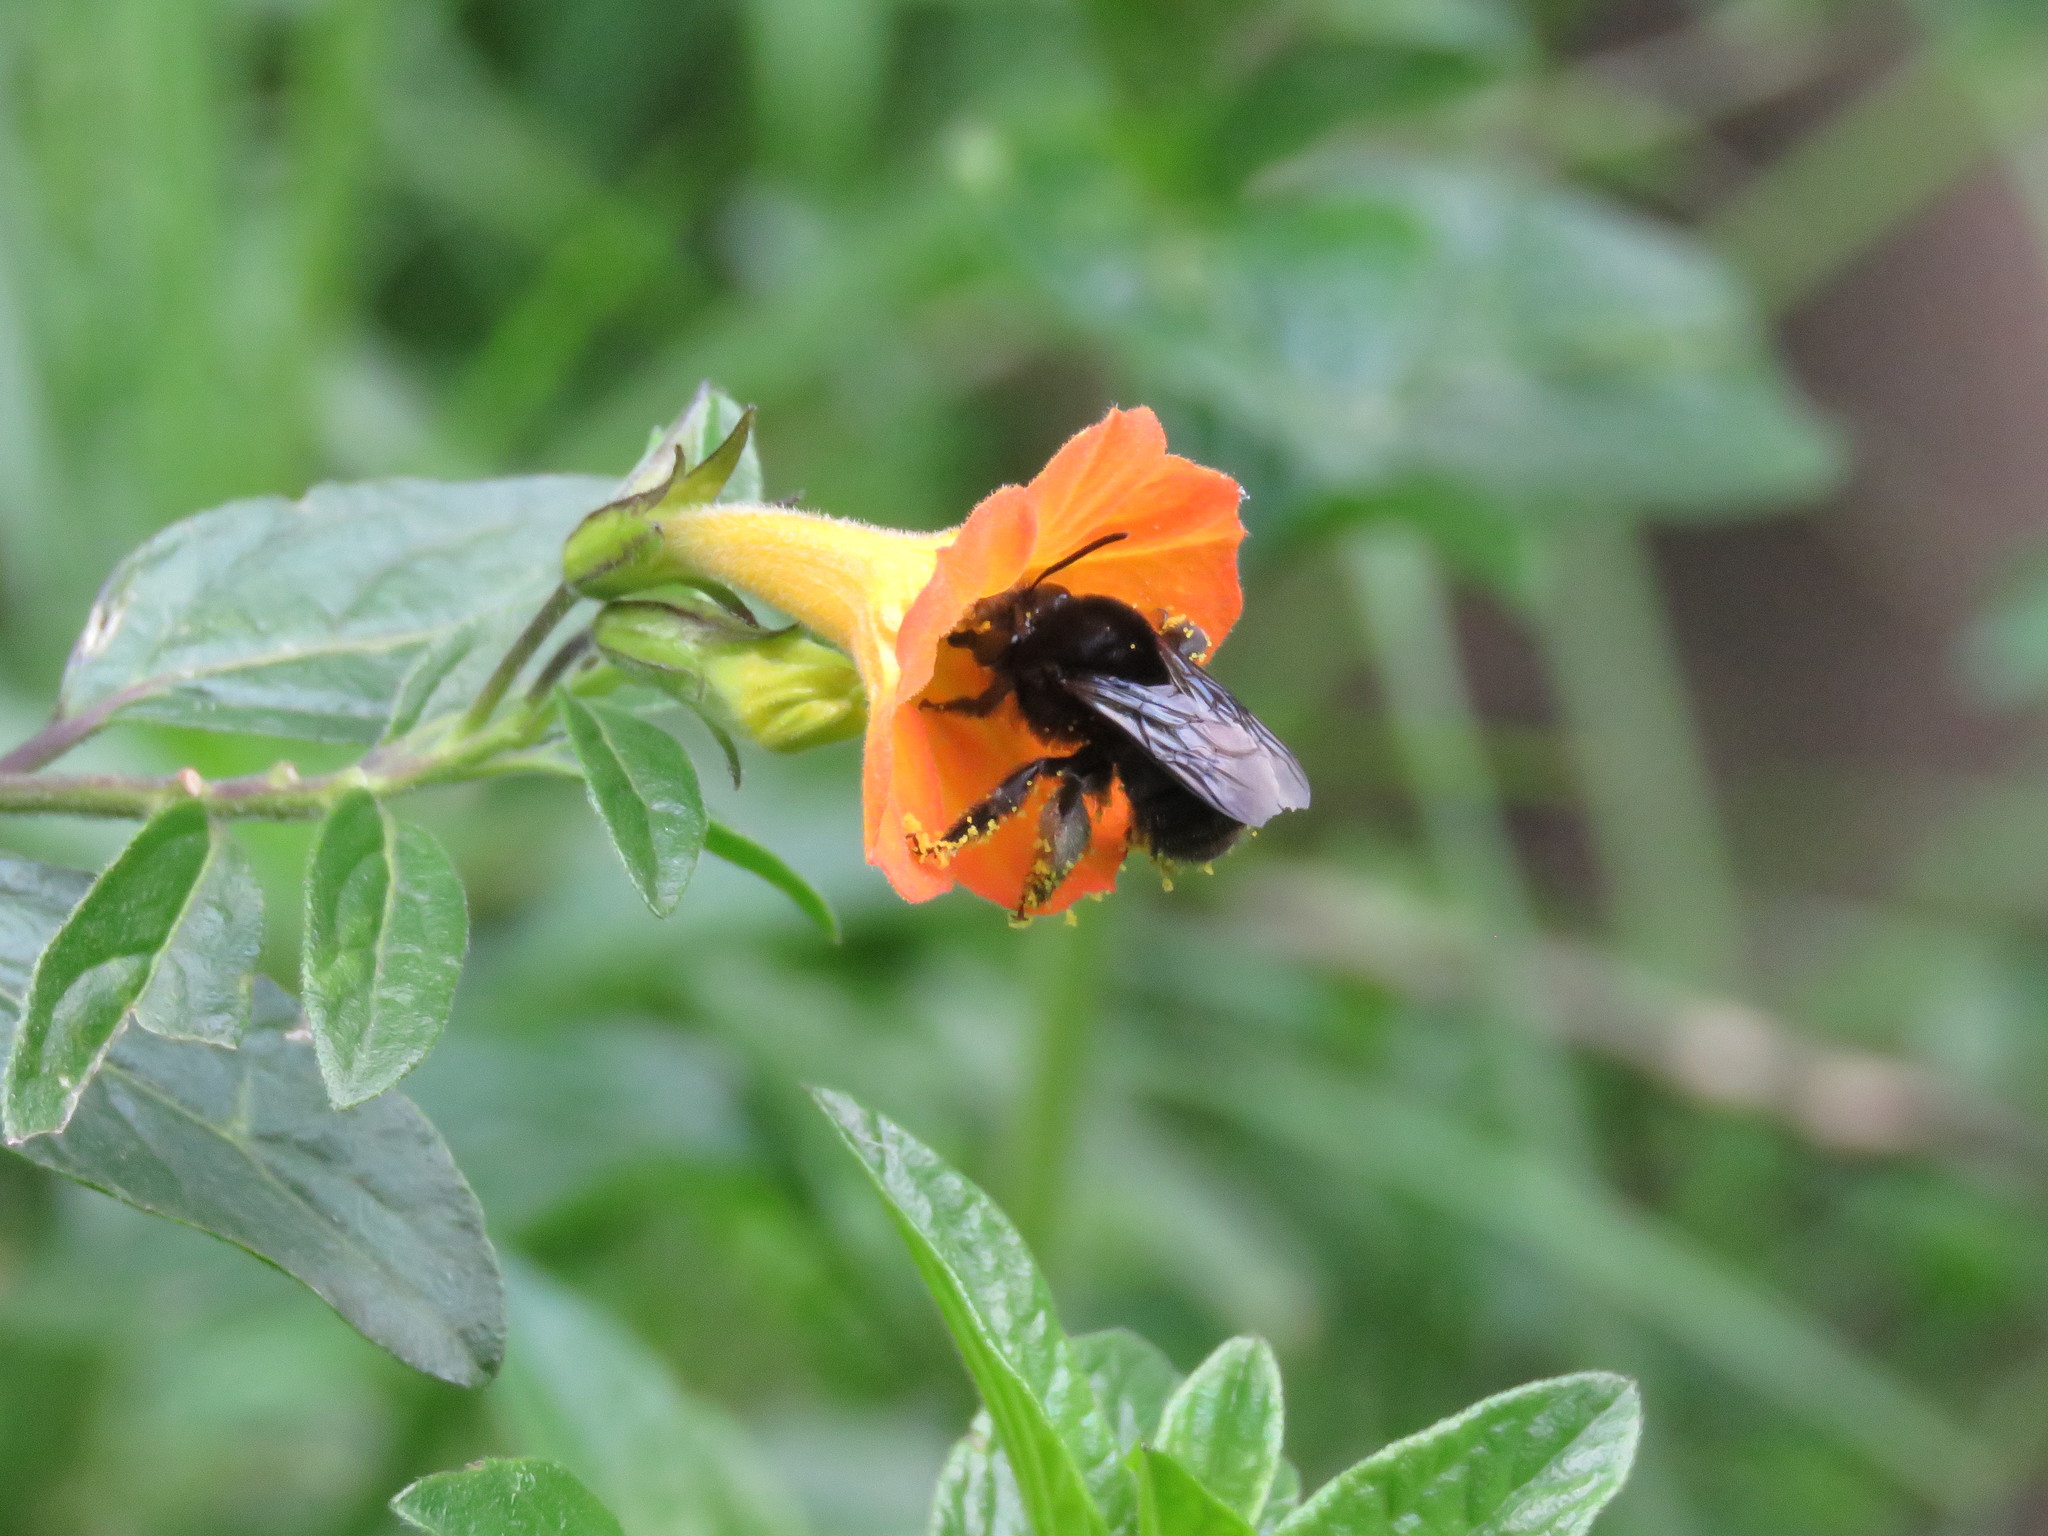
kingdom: Plantae
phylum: Tracheophyta
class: Magnoliopsida
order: Solanales
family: Solanaceae
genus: Streptosolen
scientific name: Streptosolen jamesonii
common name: Marmalade bush
